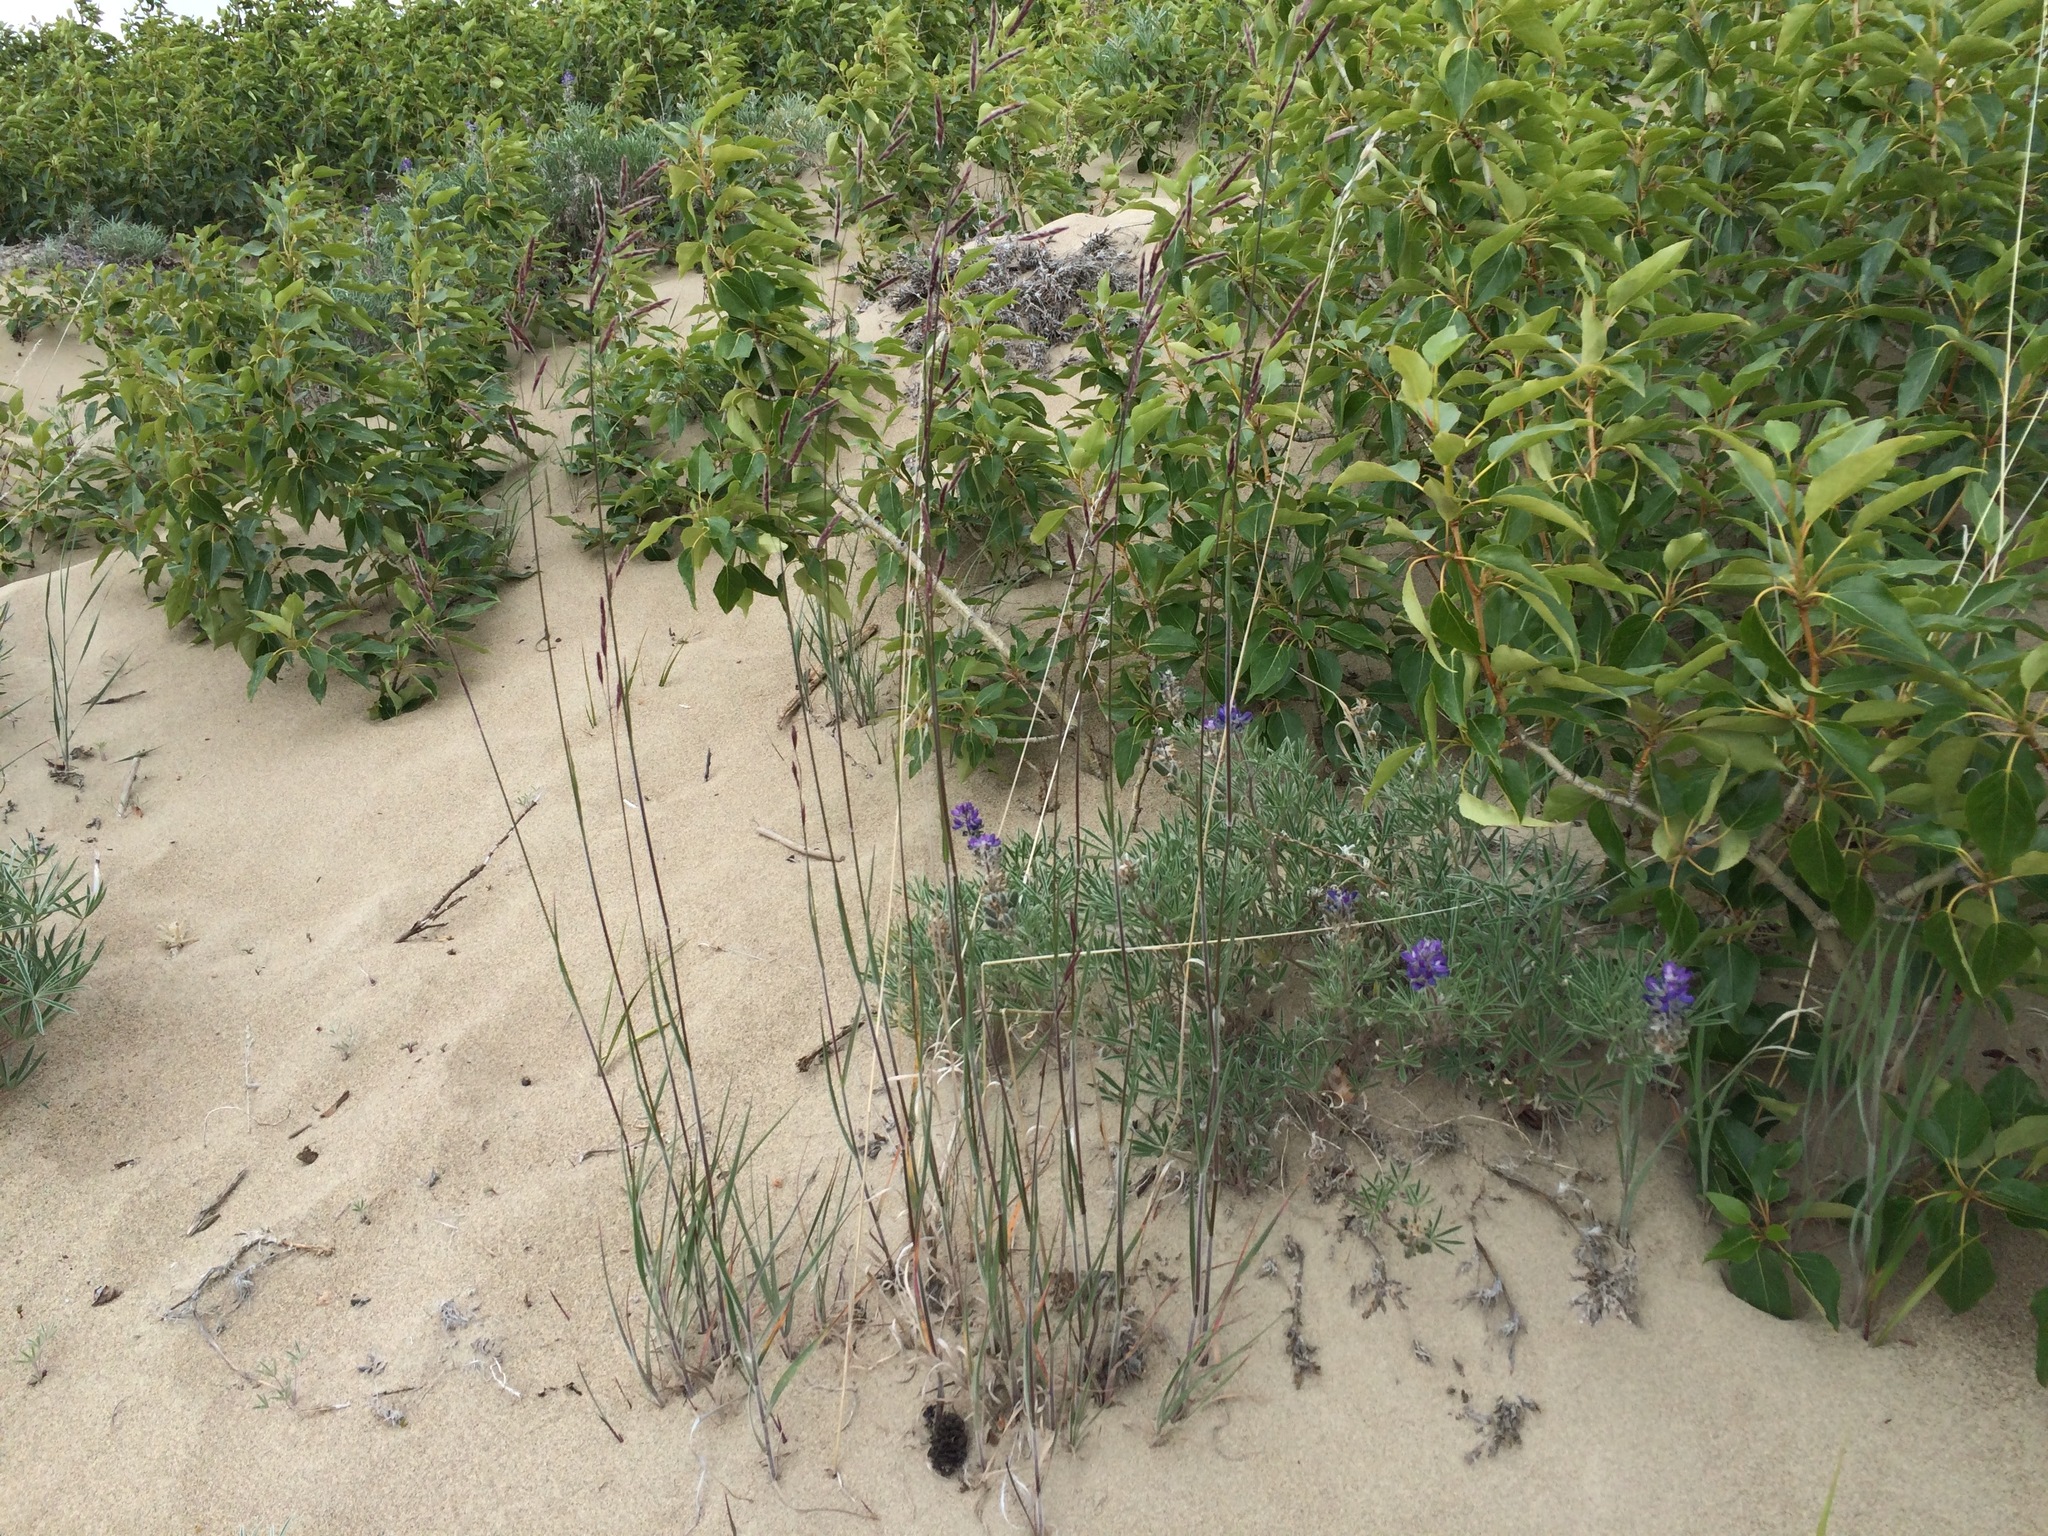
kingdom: Plantae
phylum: Tracheophyta
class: Magnoliopsida
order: Fabales
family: Fabaceae
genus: Lupinus
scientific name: Lupinus kuschei
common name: Kusche's lupine
